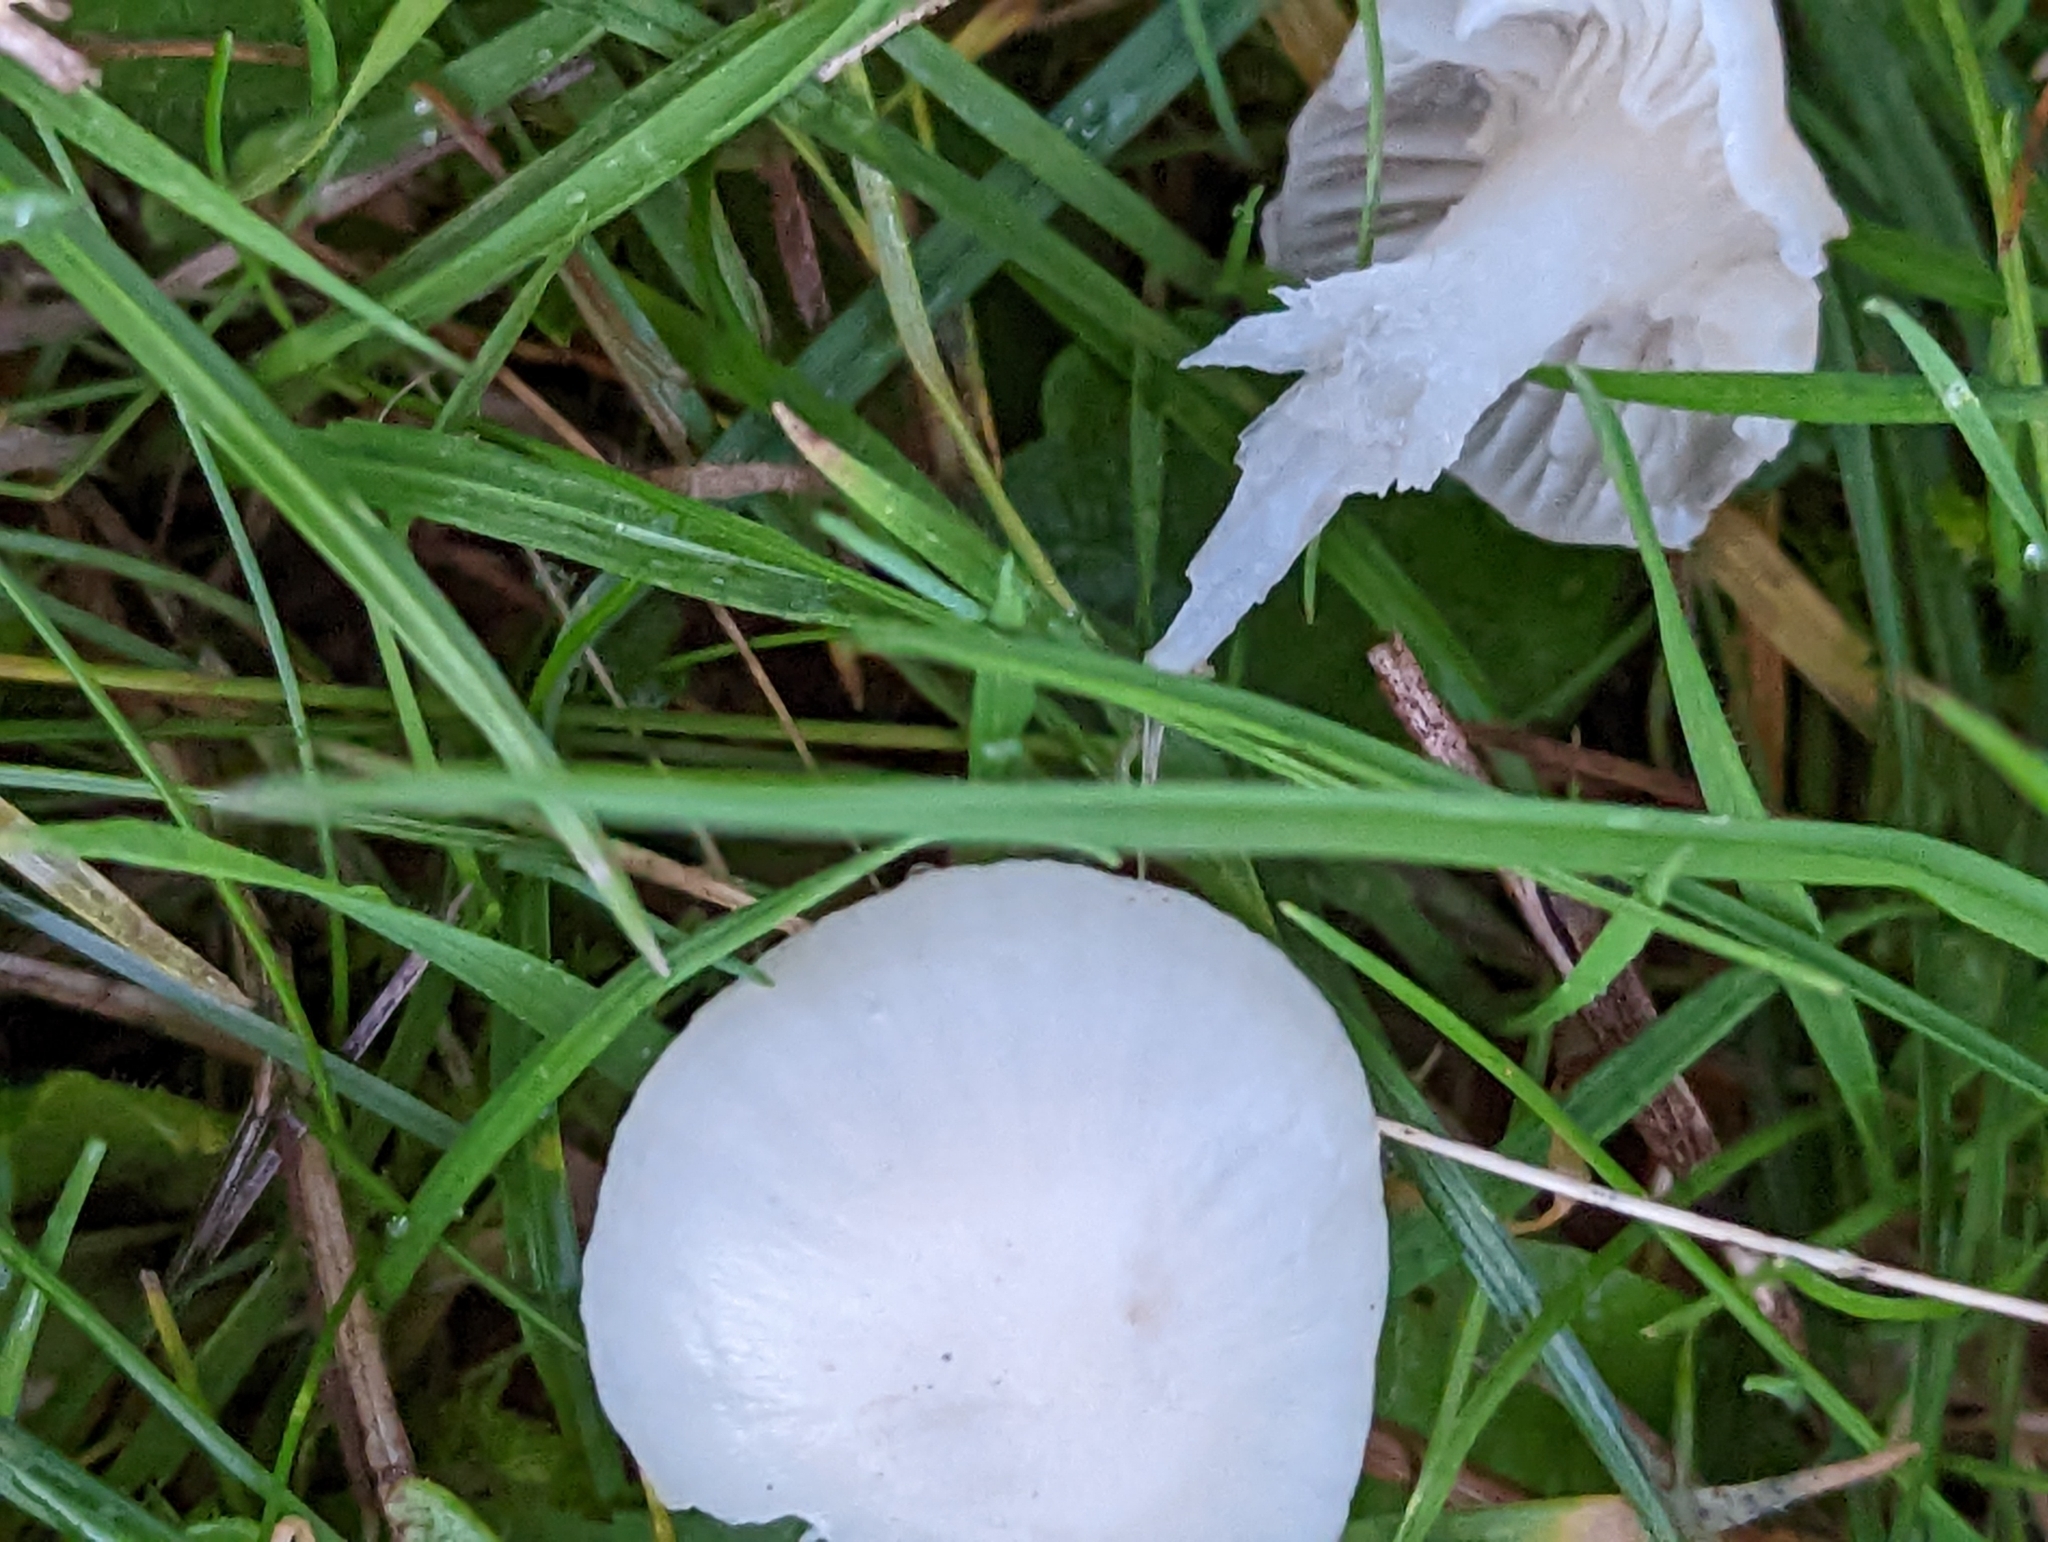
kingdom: Fungi
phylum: Basidiomycota
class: Agaricomycetes
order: Agaricales
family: Hygrophoraceae
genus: Cuphophyllus
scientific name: Cuphophyllus virgineus
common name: Snowy waxcap
